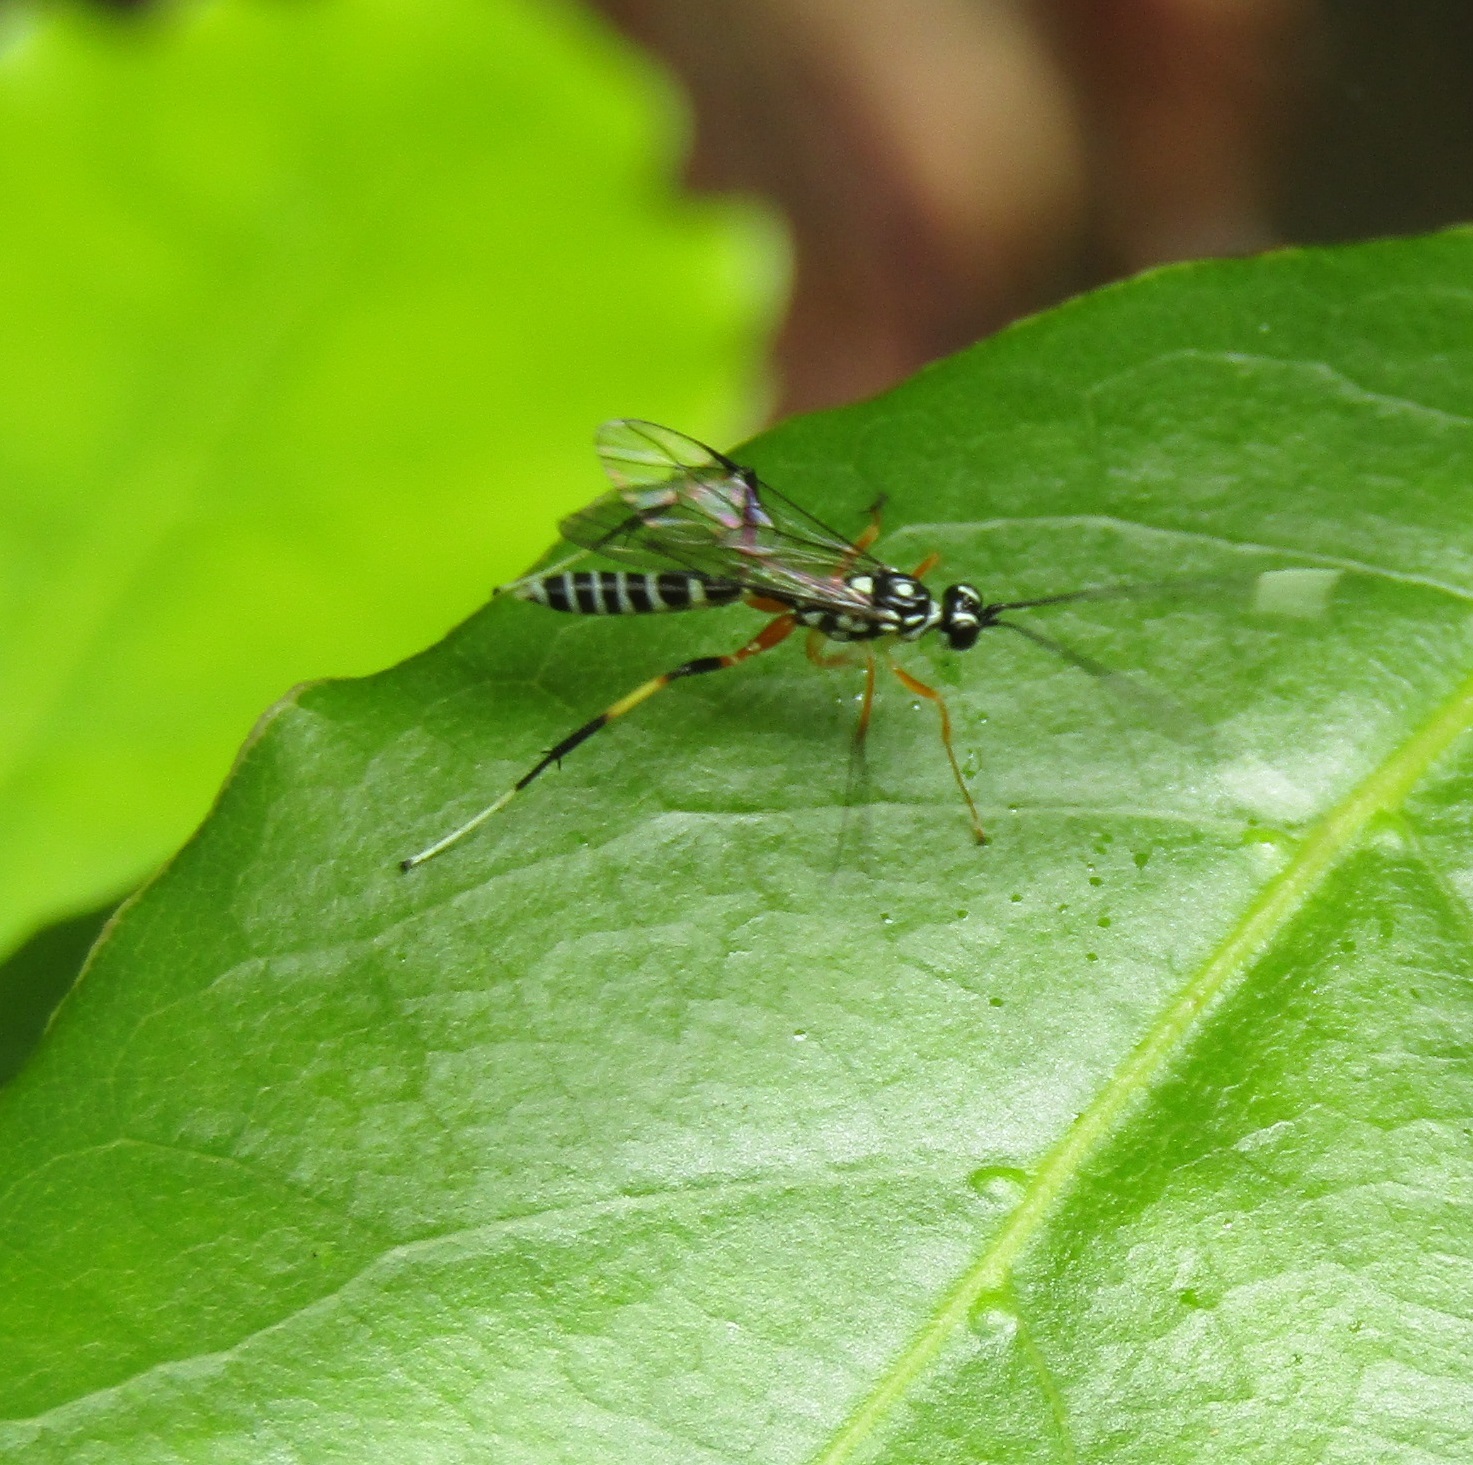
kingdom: Animalia
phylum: Arthropoda
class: Insecta
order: Hymenoptera
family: Ichneumonidae
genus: Xanthocryptus
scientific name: Xanthocryptus novozealandicus
